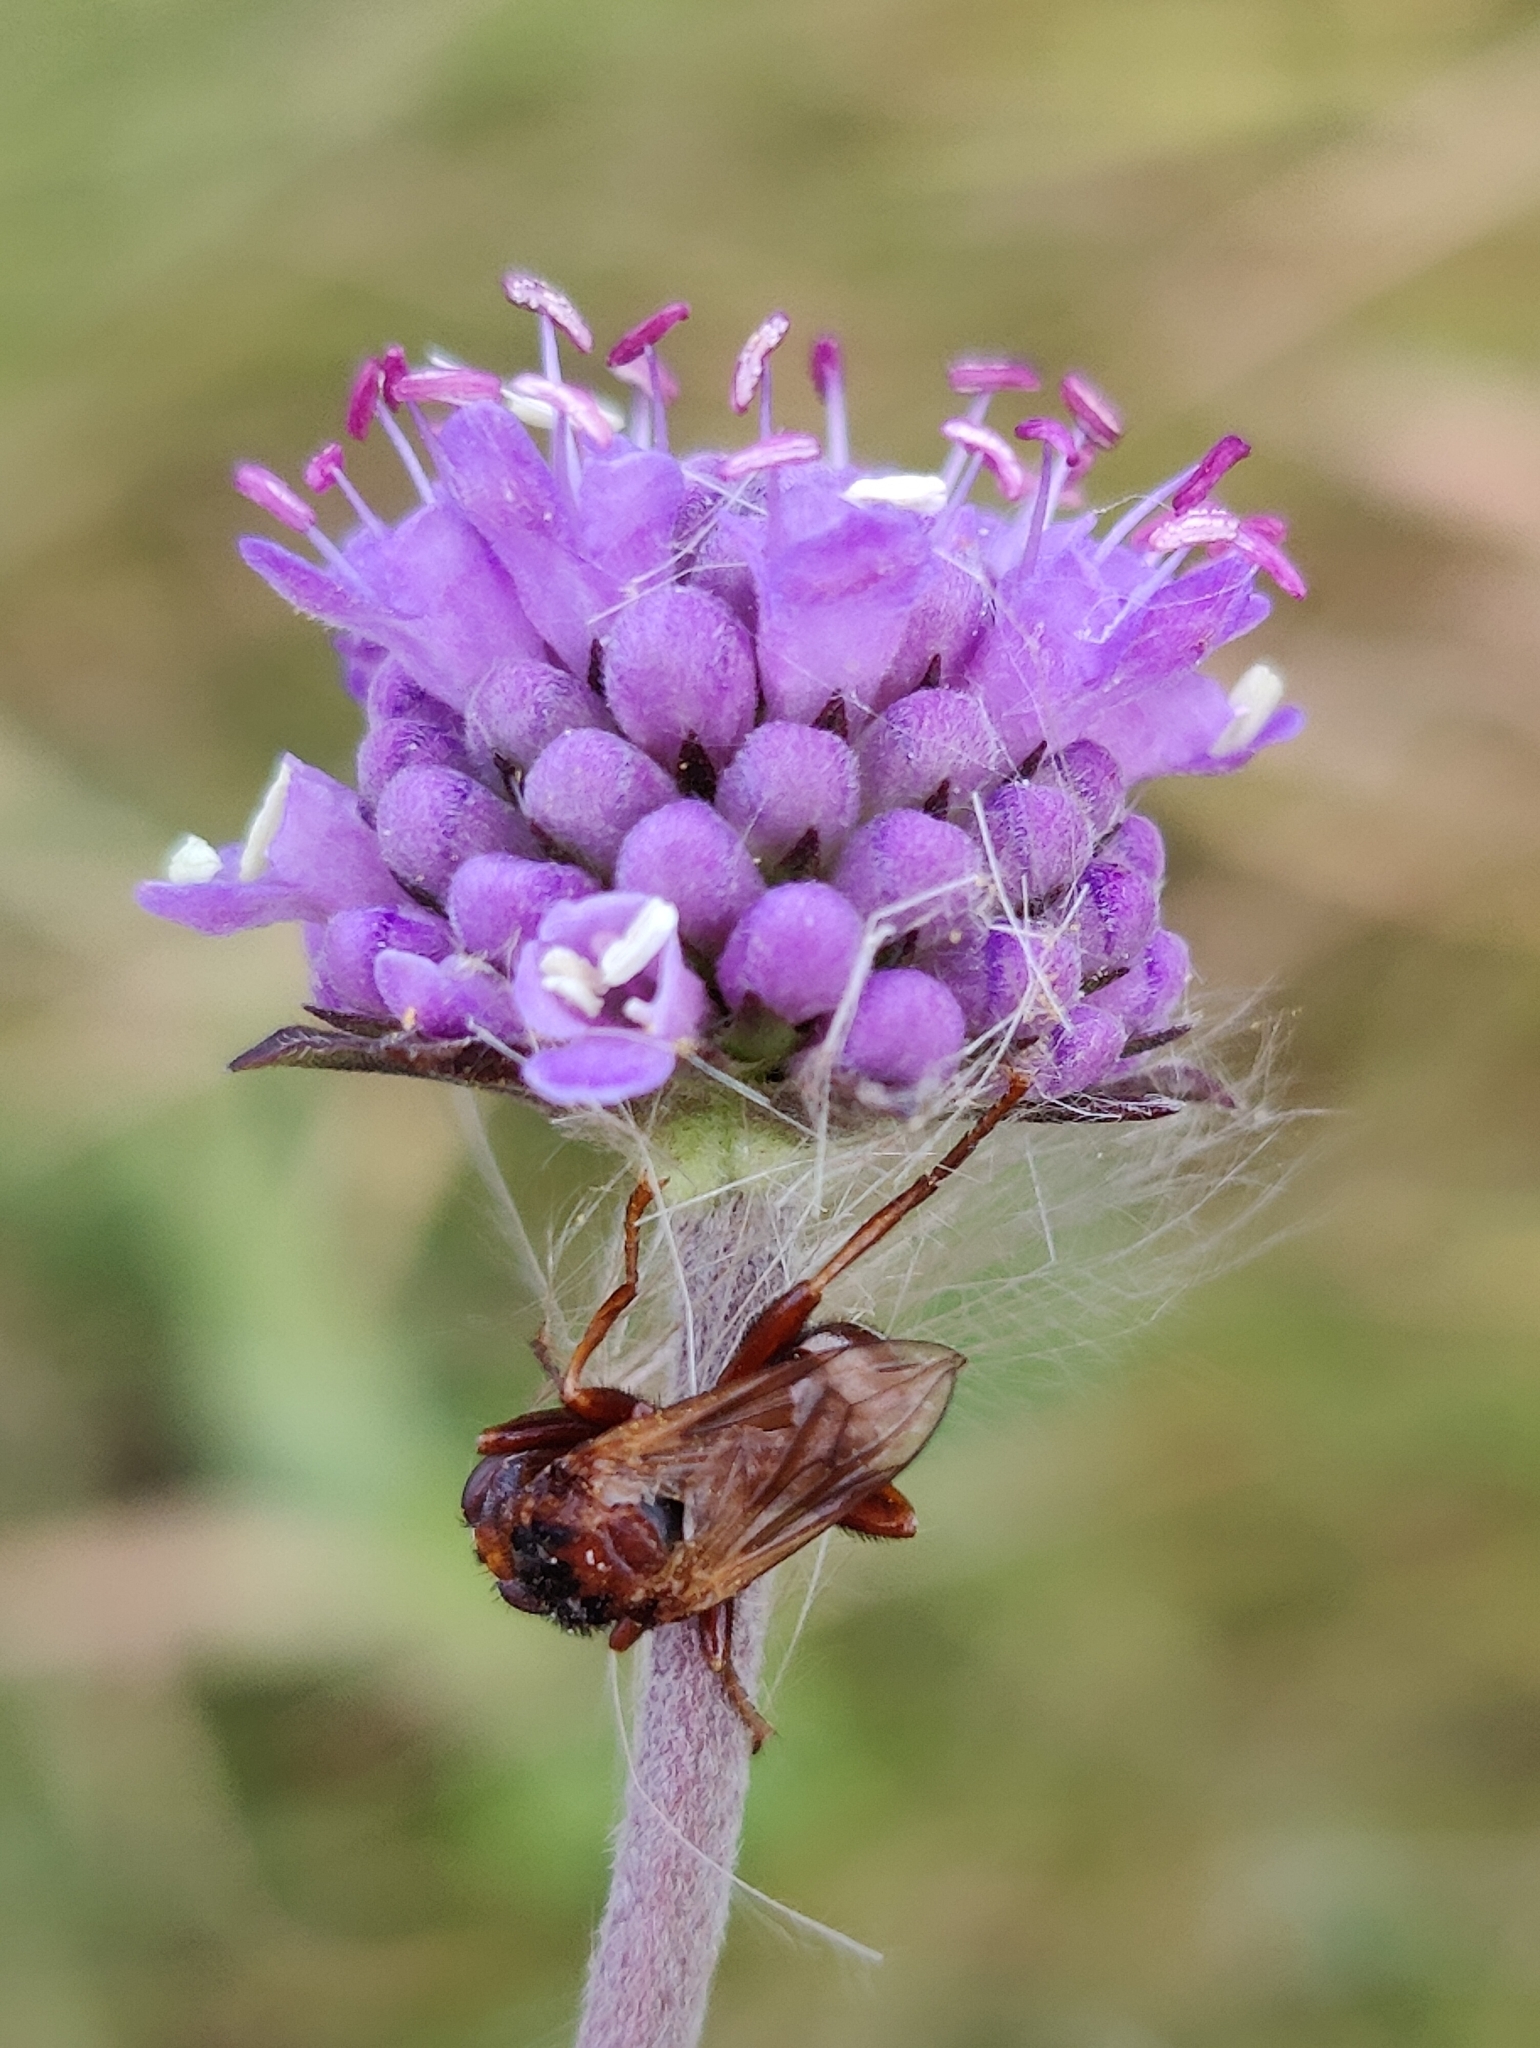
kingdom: Plantae
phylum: Tracheophyta
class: Magnoliopsida
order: Dipsacales
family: Caprifoliaceae
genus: Succisa
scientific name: Succisa pratensis
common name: Devil's-bit
